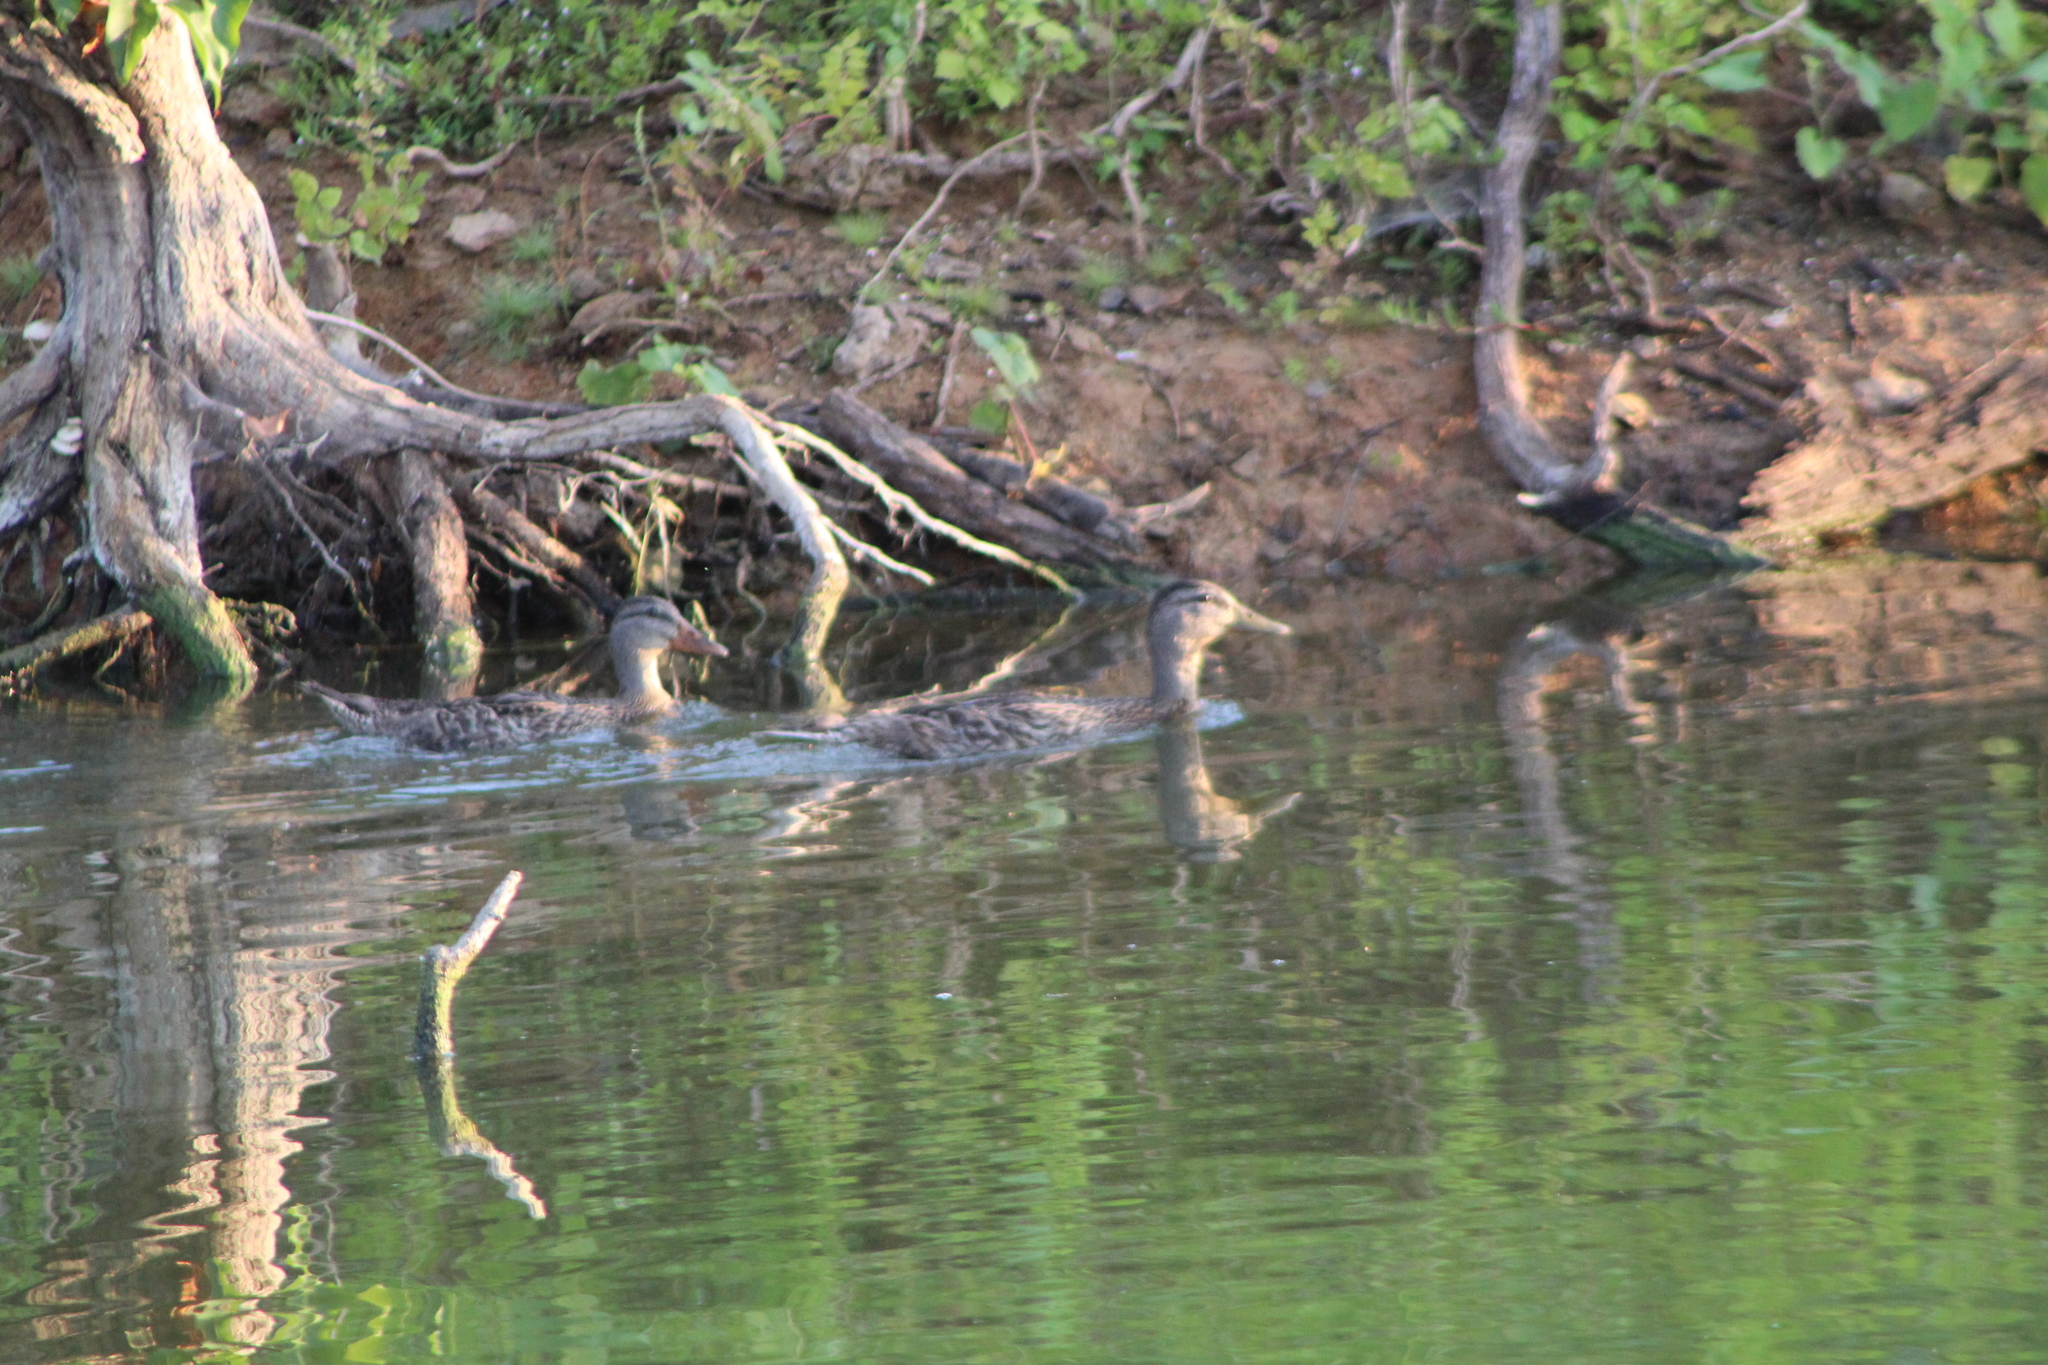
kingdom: Animalia
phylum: Chordata
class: Aves
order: Anseriformes
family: Anatidae
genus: Anas
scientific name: Anas platyrhynchos
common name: Mallard
